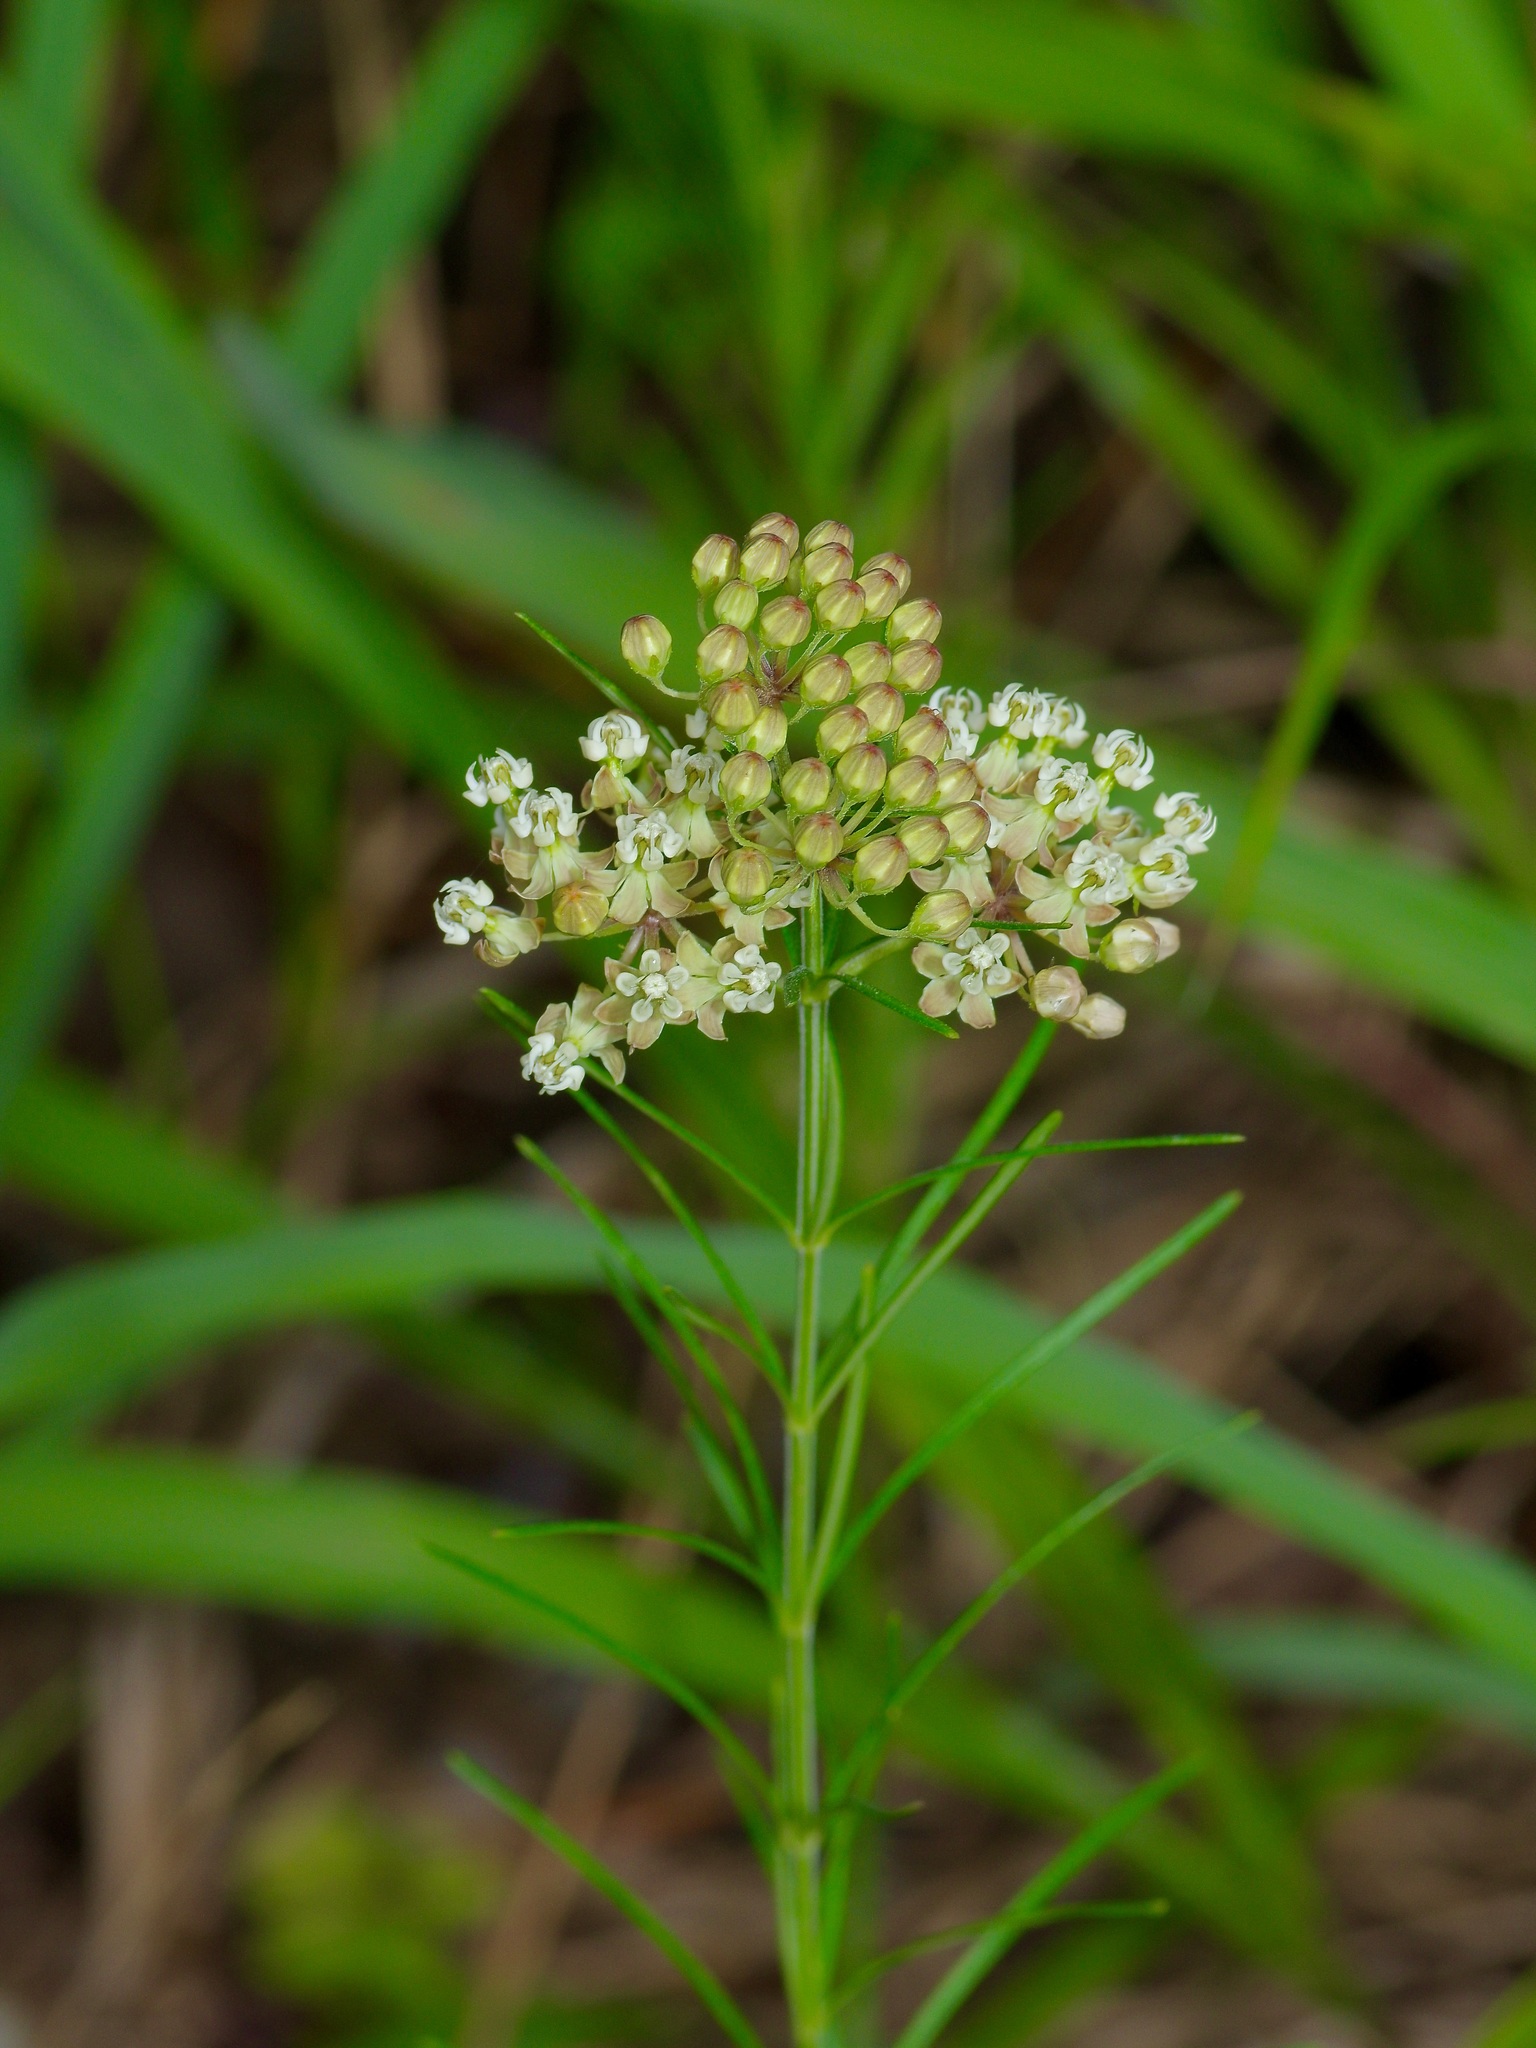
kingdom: Plantae
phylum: Tracheophyta
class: Magnoliopsida
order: Gentianales
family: Apocynaceae
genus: Asclepias
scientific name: Asclepias verticillata
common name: Eastern whorled milkweed
